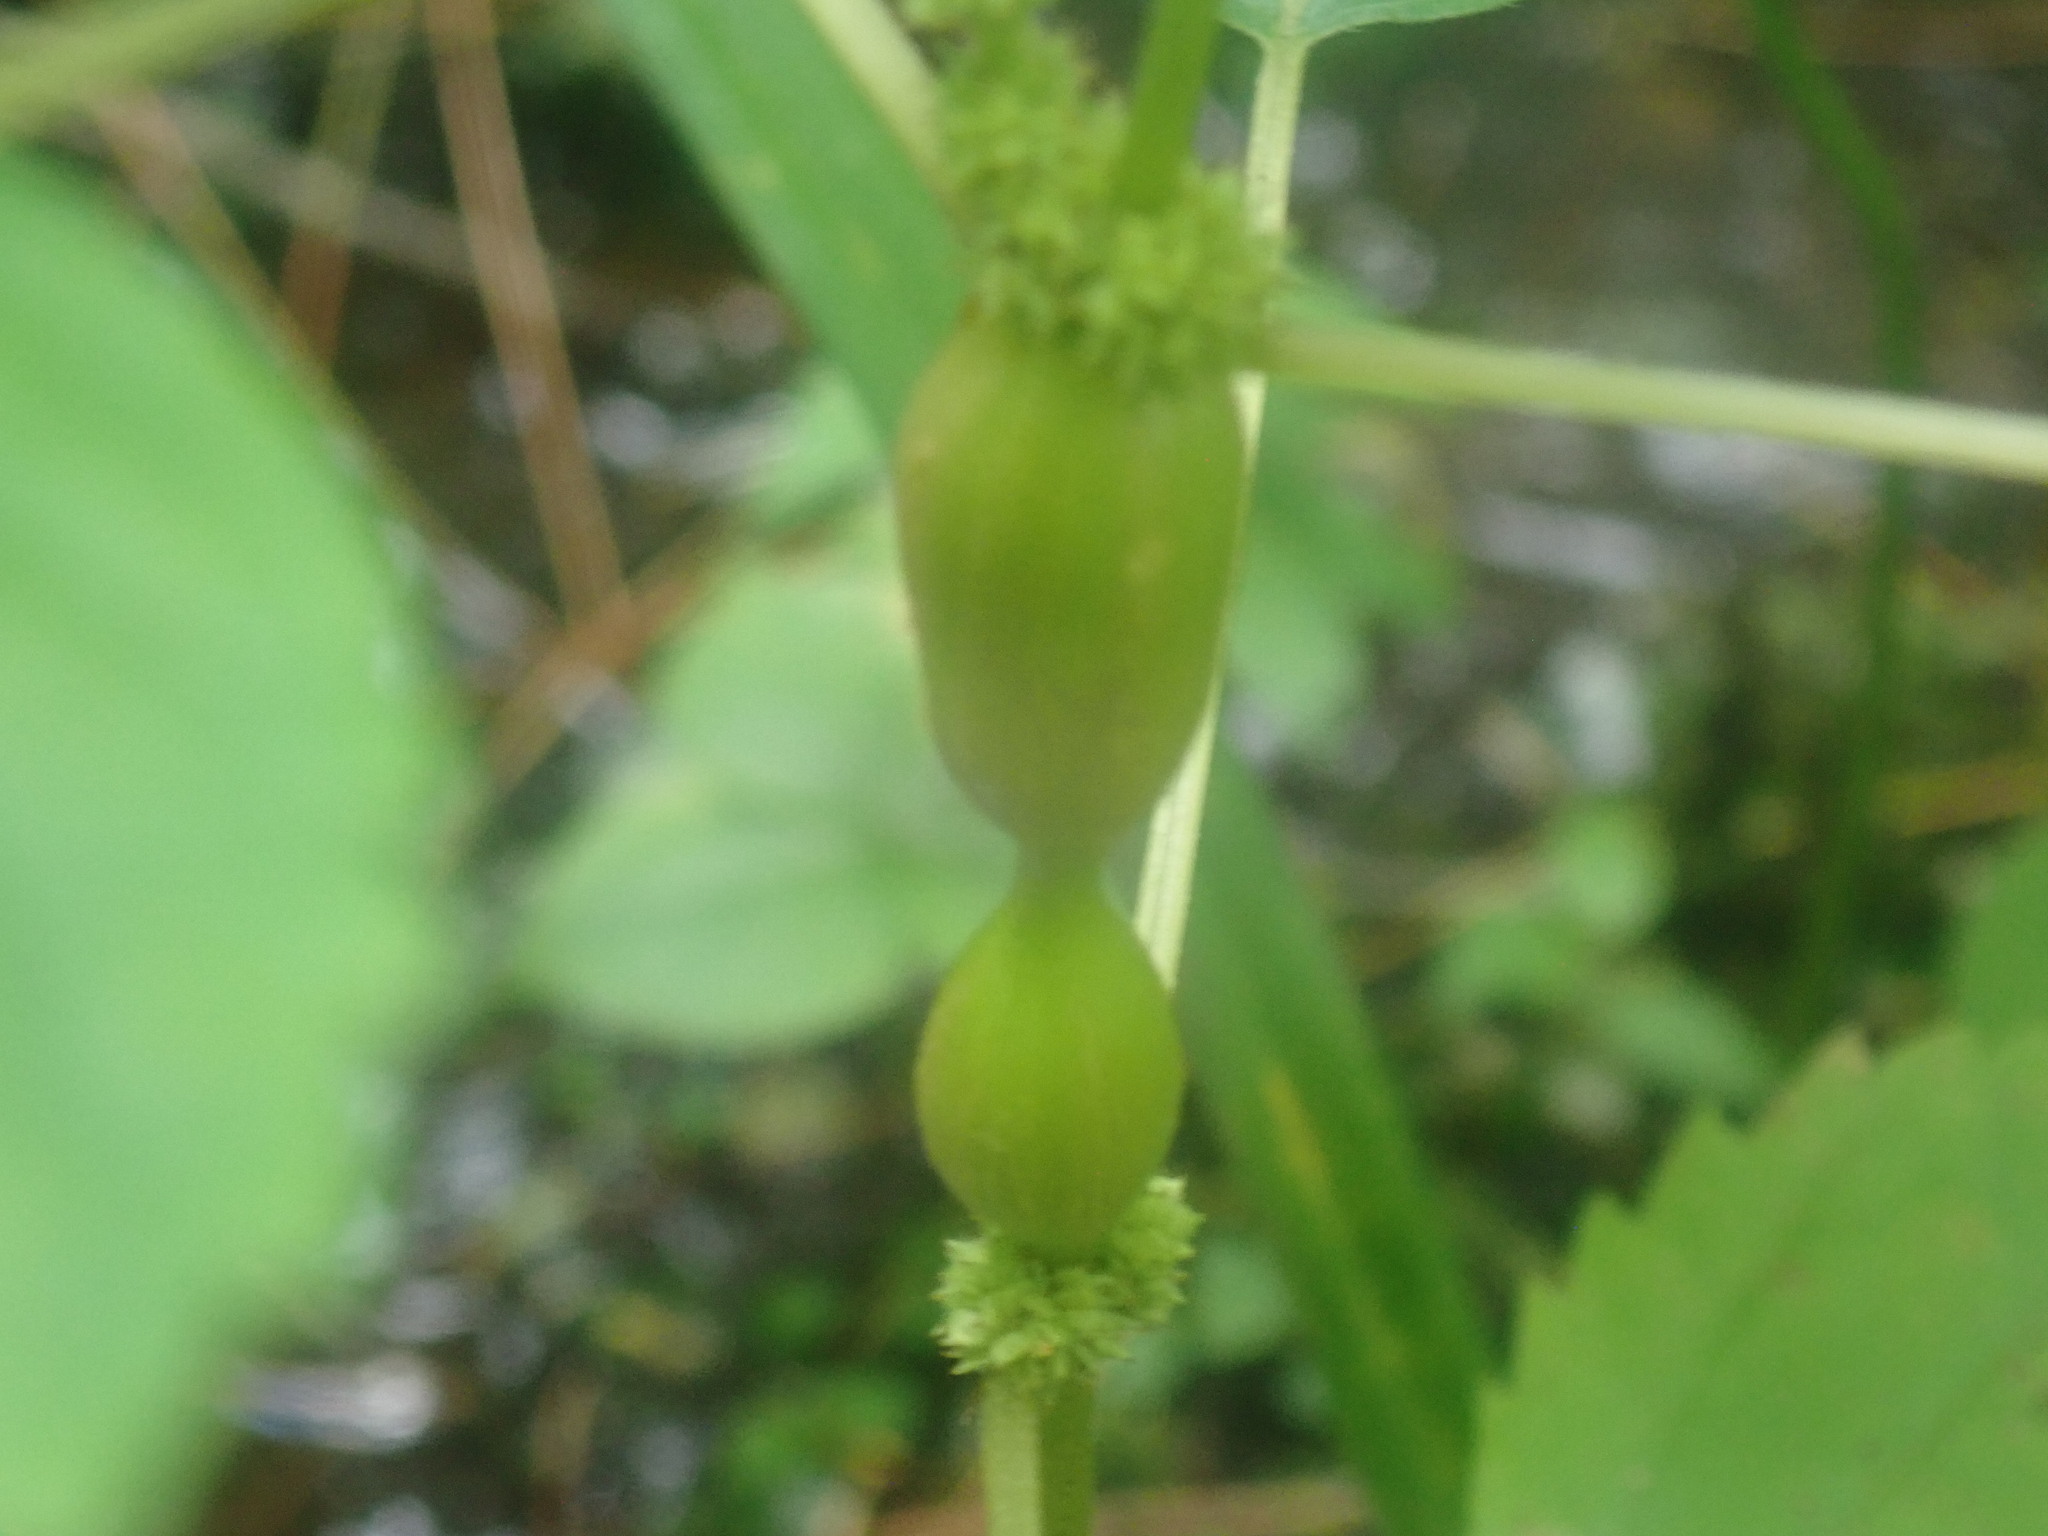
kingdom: Animalia
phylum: Arthropoda
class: Insecta
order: Diptera
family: Cecidomyiidae
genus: Neolasioptera
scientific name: Neolasioptera boehmeriae
